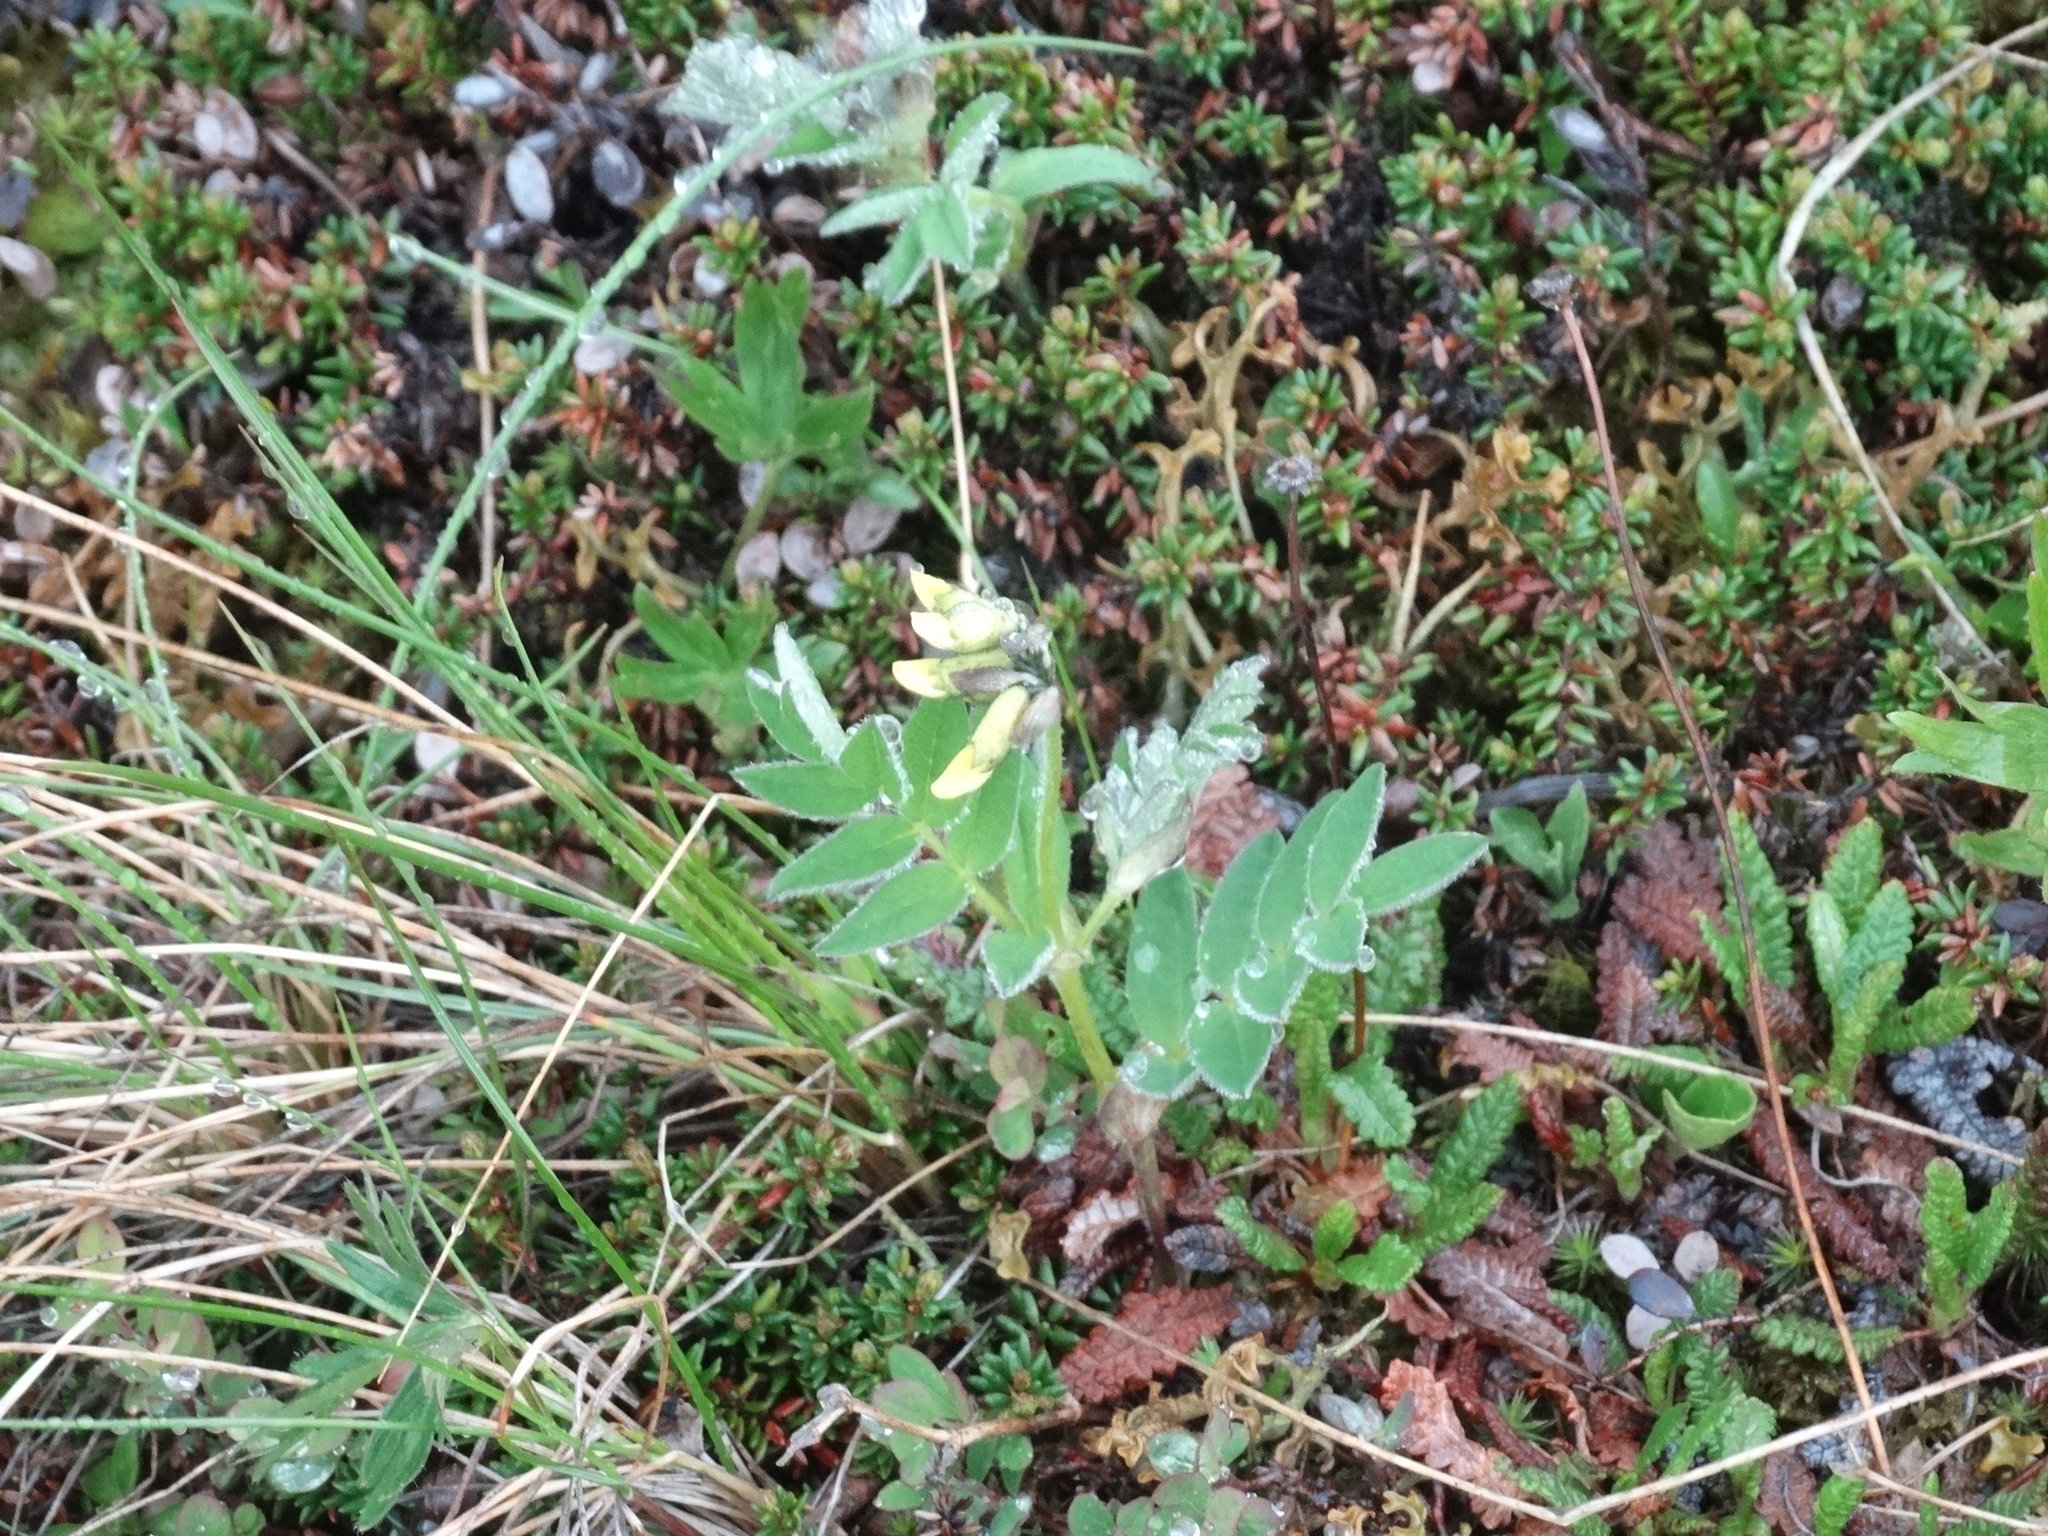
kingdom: Plantae
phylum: Tracheophyta
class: Magnoliopsida
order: Fabales
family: Fabaceae
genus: Astragalus
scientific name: Astragalus umbellatus
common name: Tundra milk-vetch
